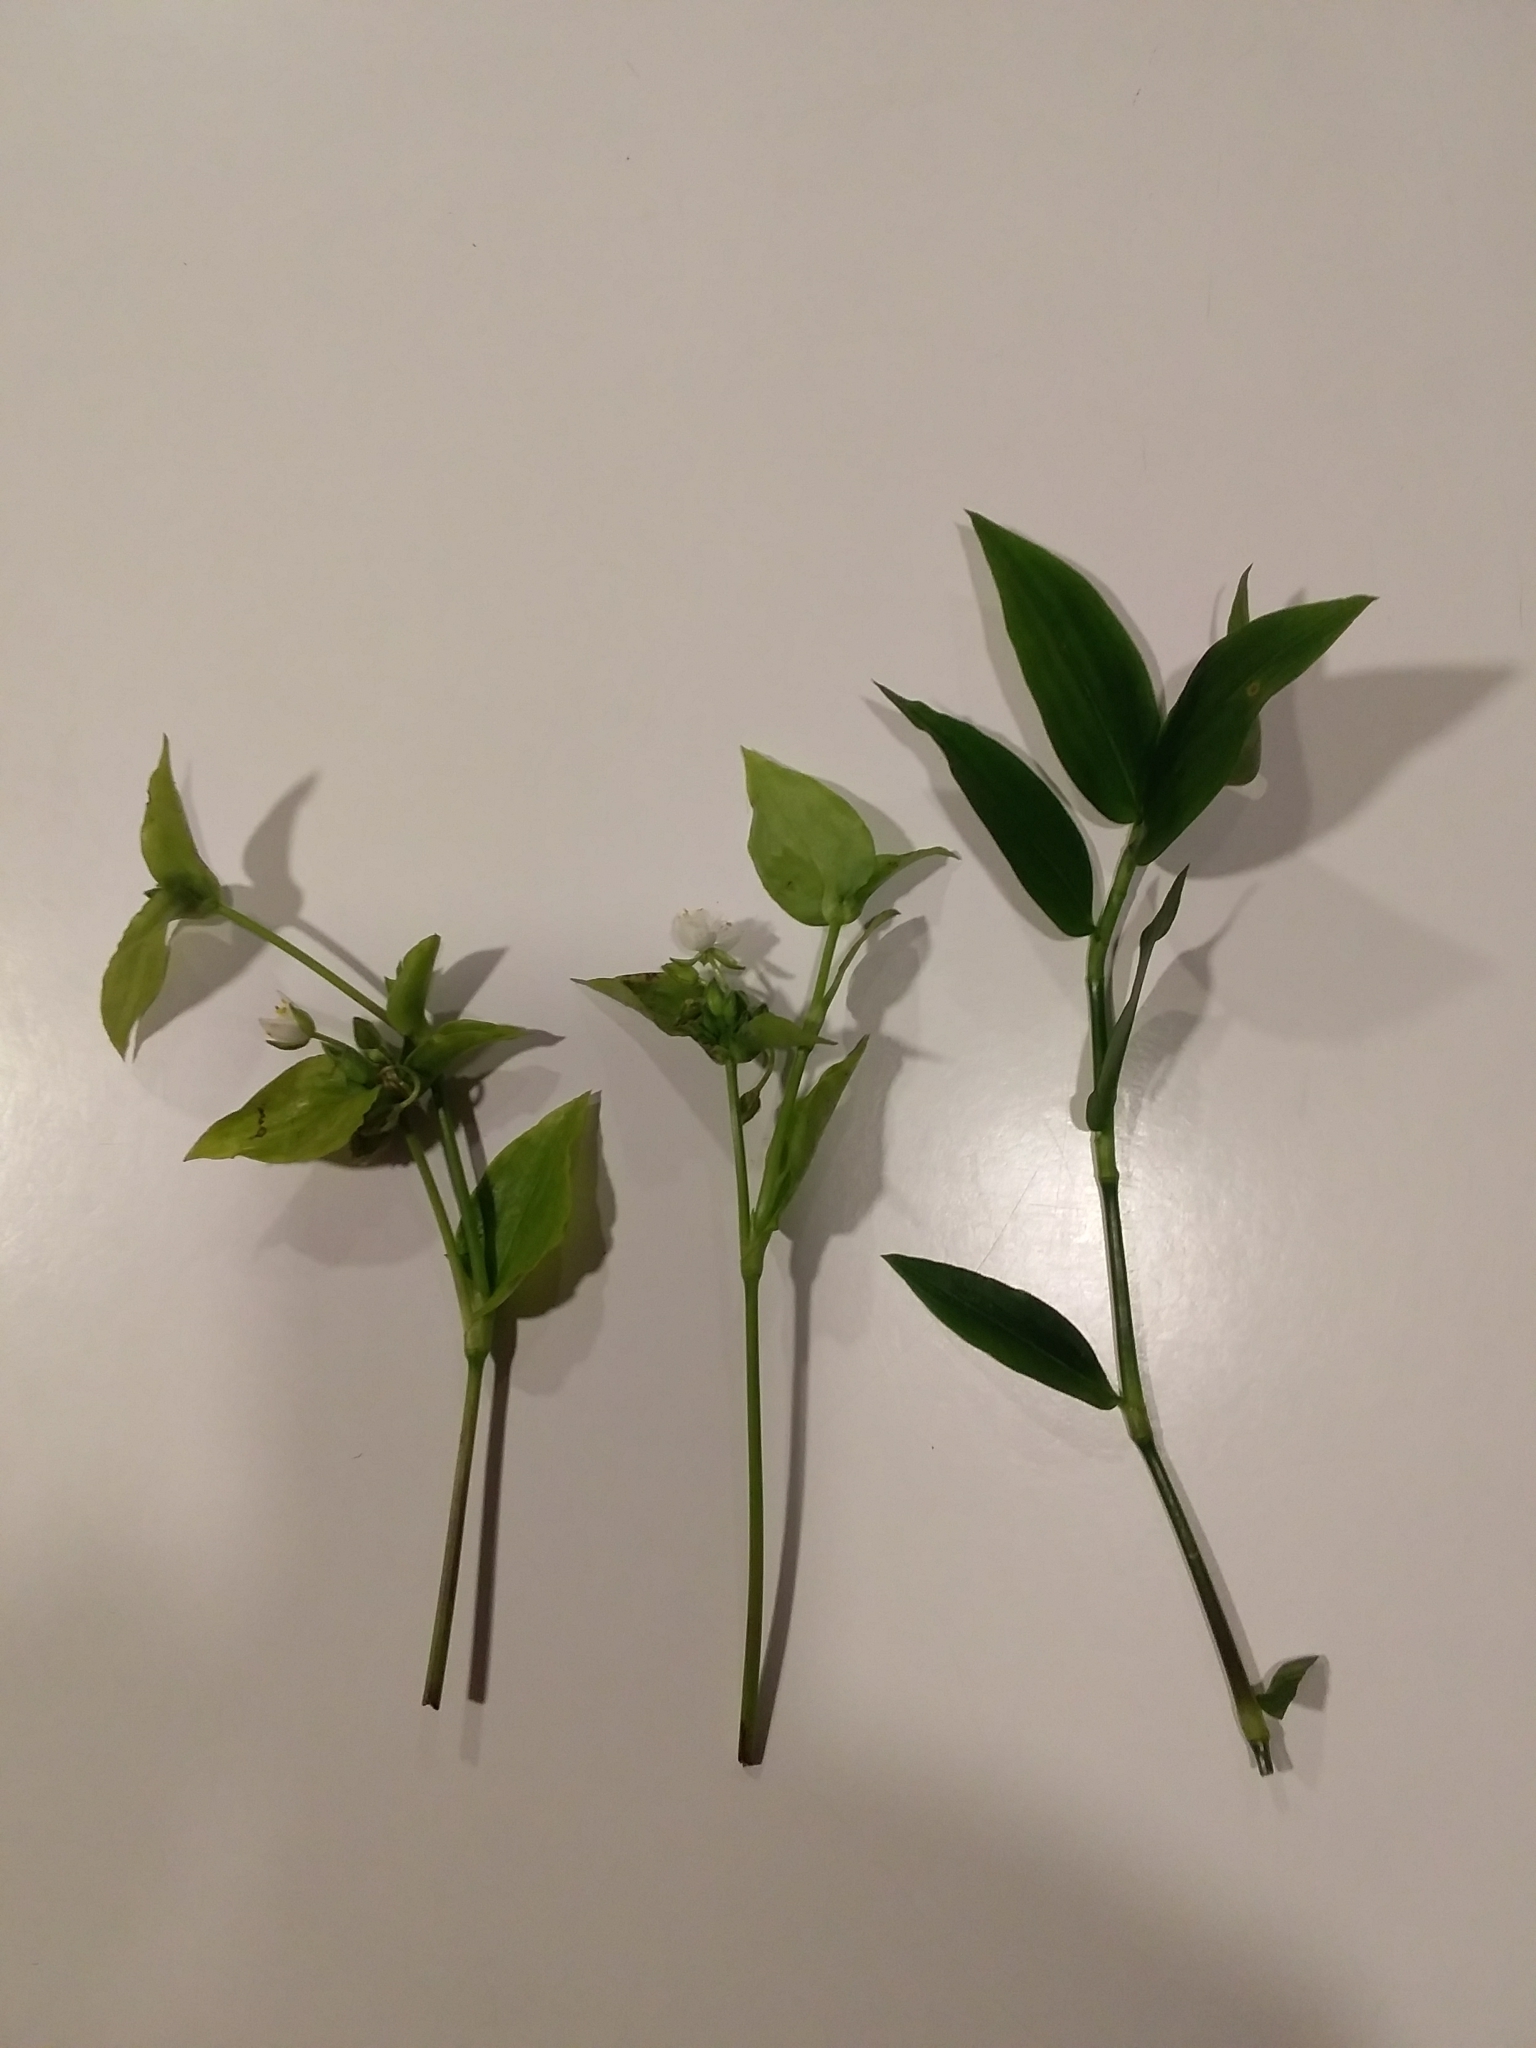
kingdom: Plantae
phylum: Tracheophyta
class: Liliopsida
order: Commelinales
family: Commelinaceae
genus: Tradescantia
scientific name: Tradescantia fluminensis
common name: Wandering-jew
